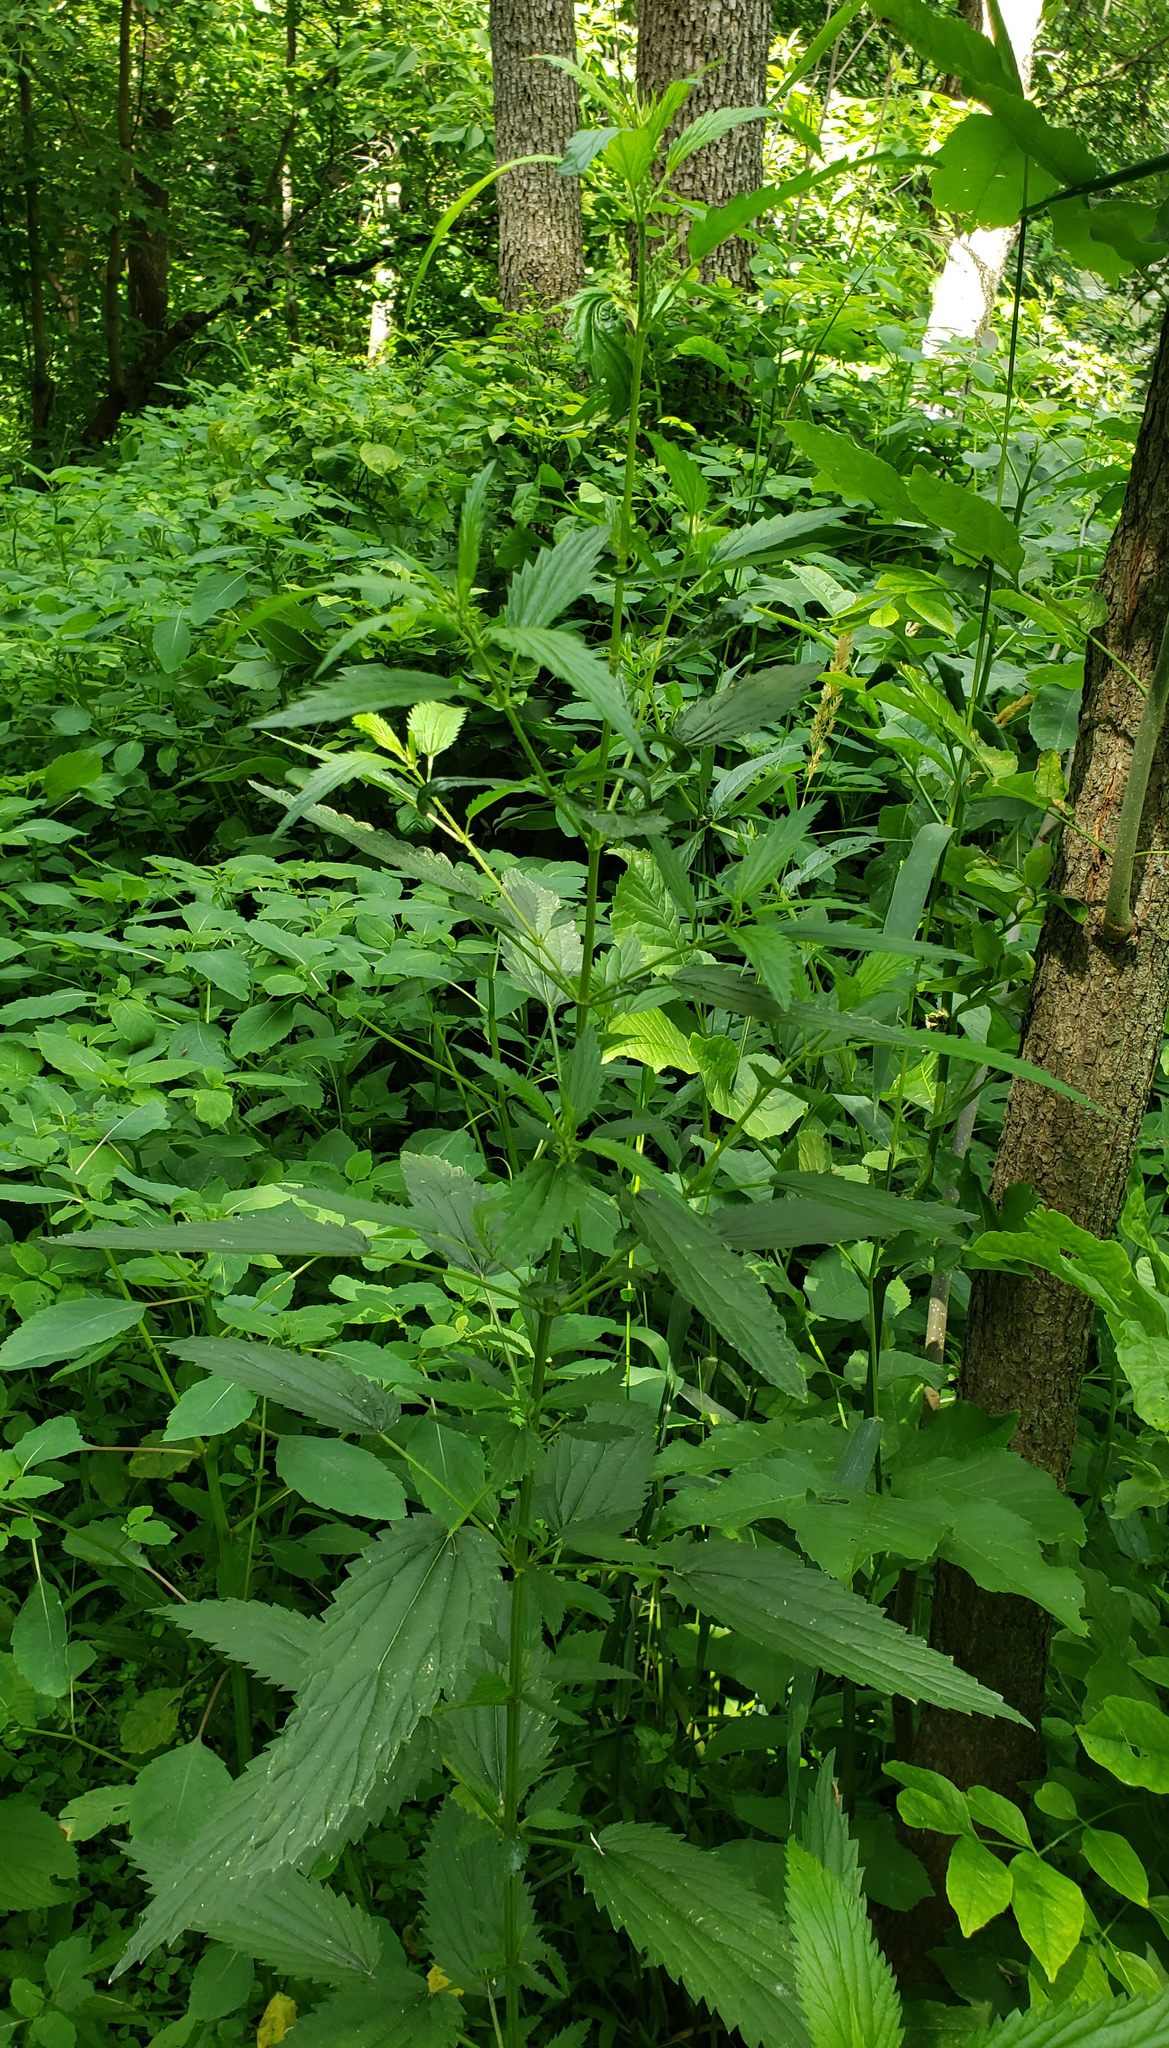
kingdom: Plantae
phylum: Tracheophyta
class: Magnoliopsida
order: Rosales
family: Urticaceae
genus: Urtica
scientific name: Urtica dioica
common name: Common nettle
